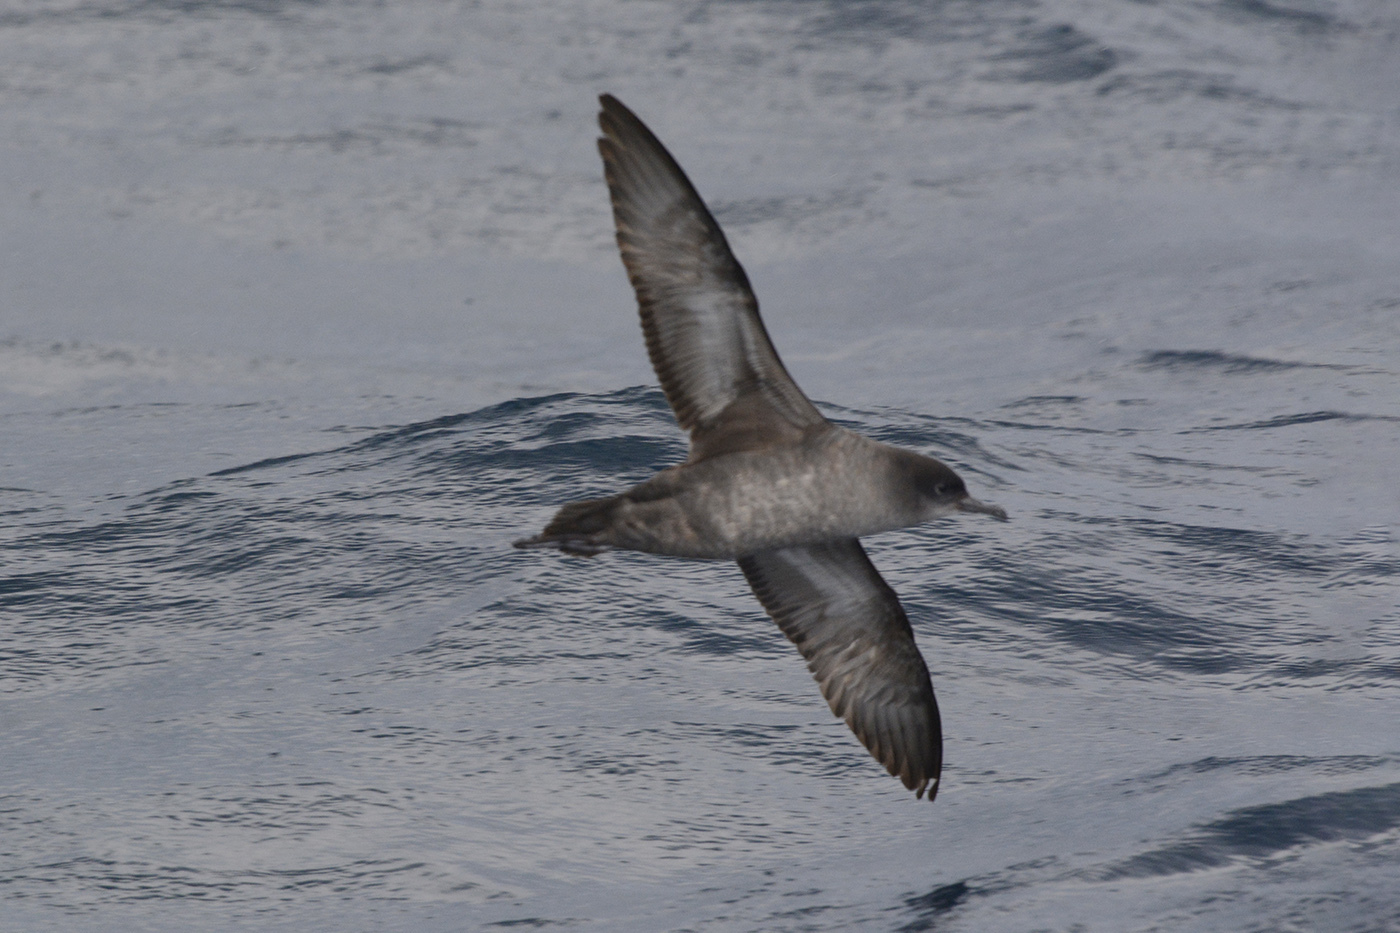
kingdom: Animalia
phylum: Chordata
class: Aves
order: Procellariiformes
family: Procellariidae
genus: Puffinus
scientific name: Puffinus tenuirostris
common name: Short-tailed shearwater
